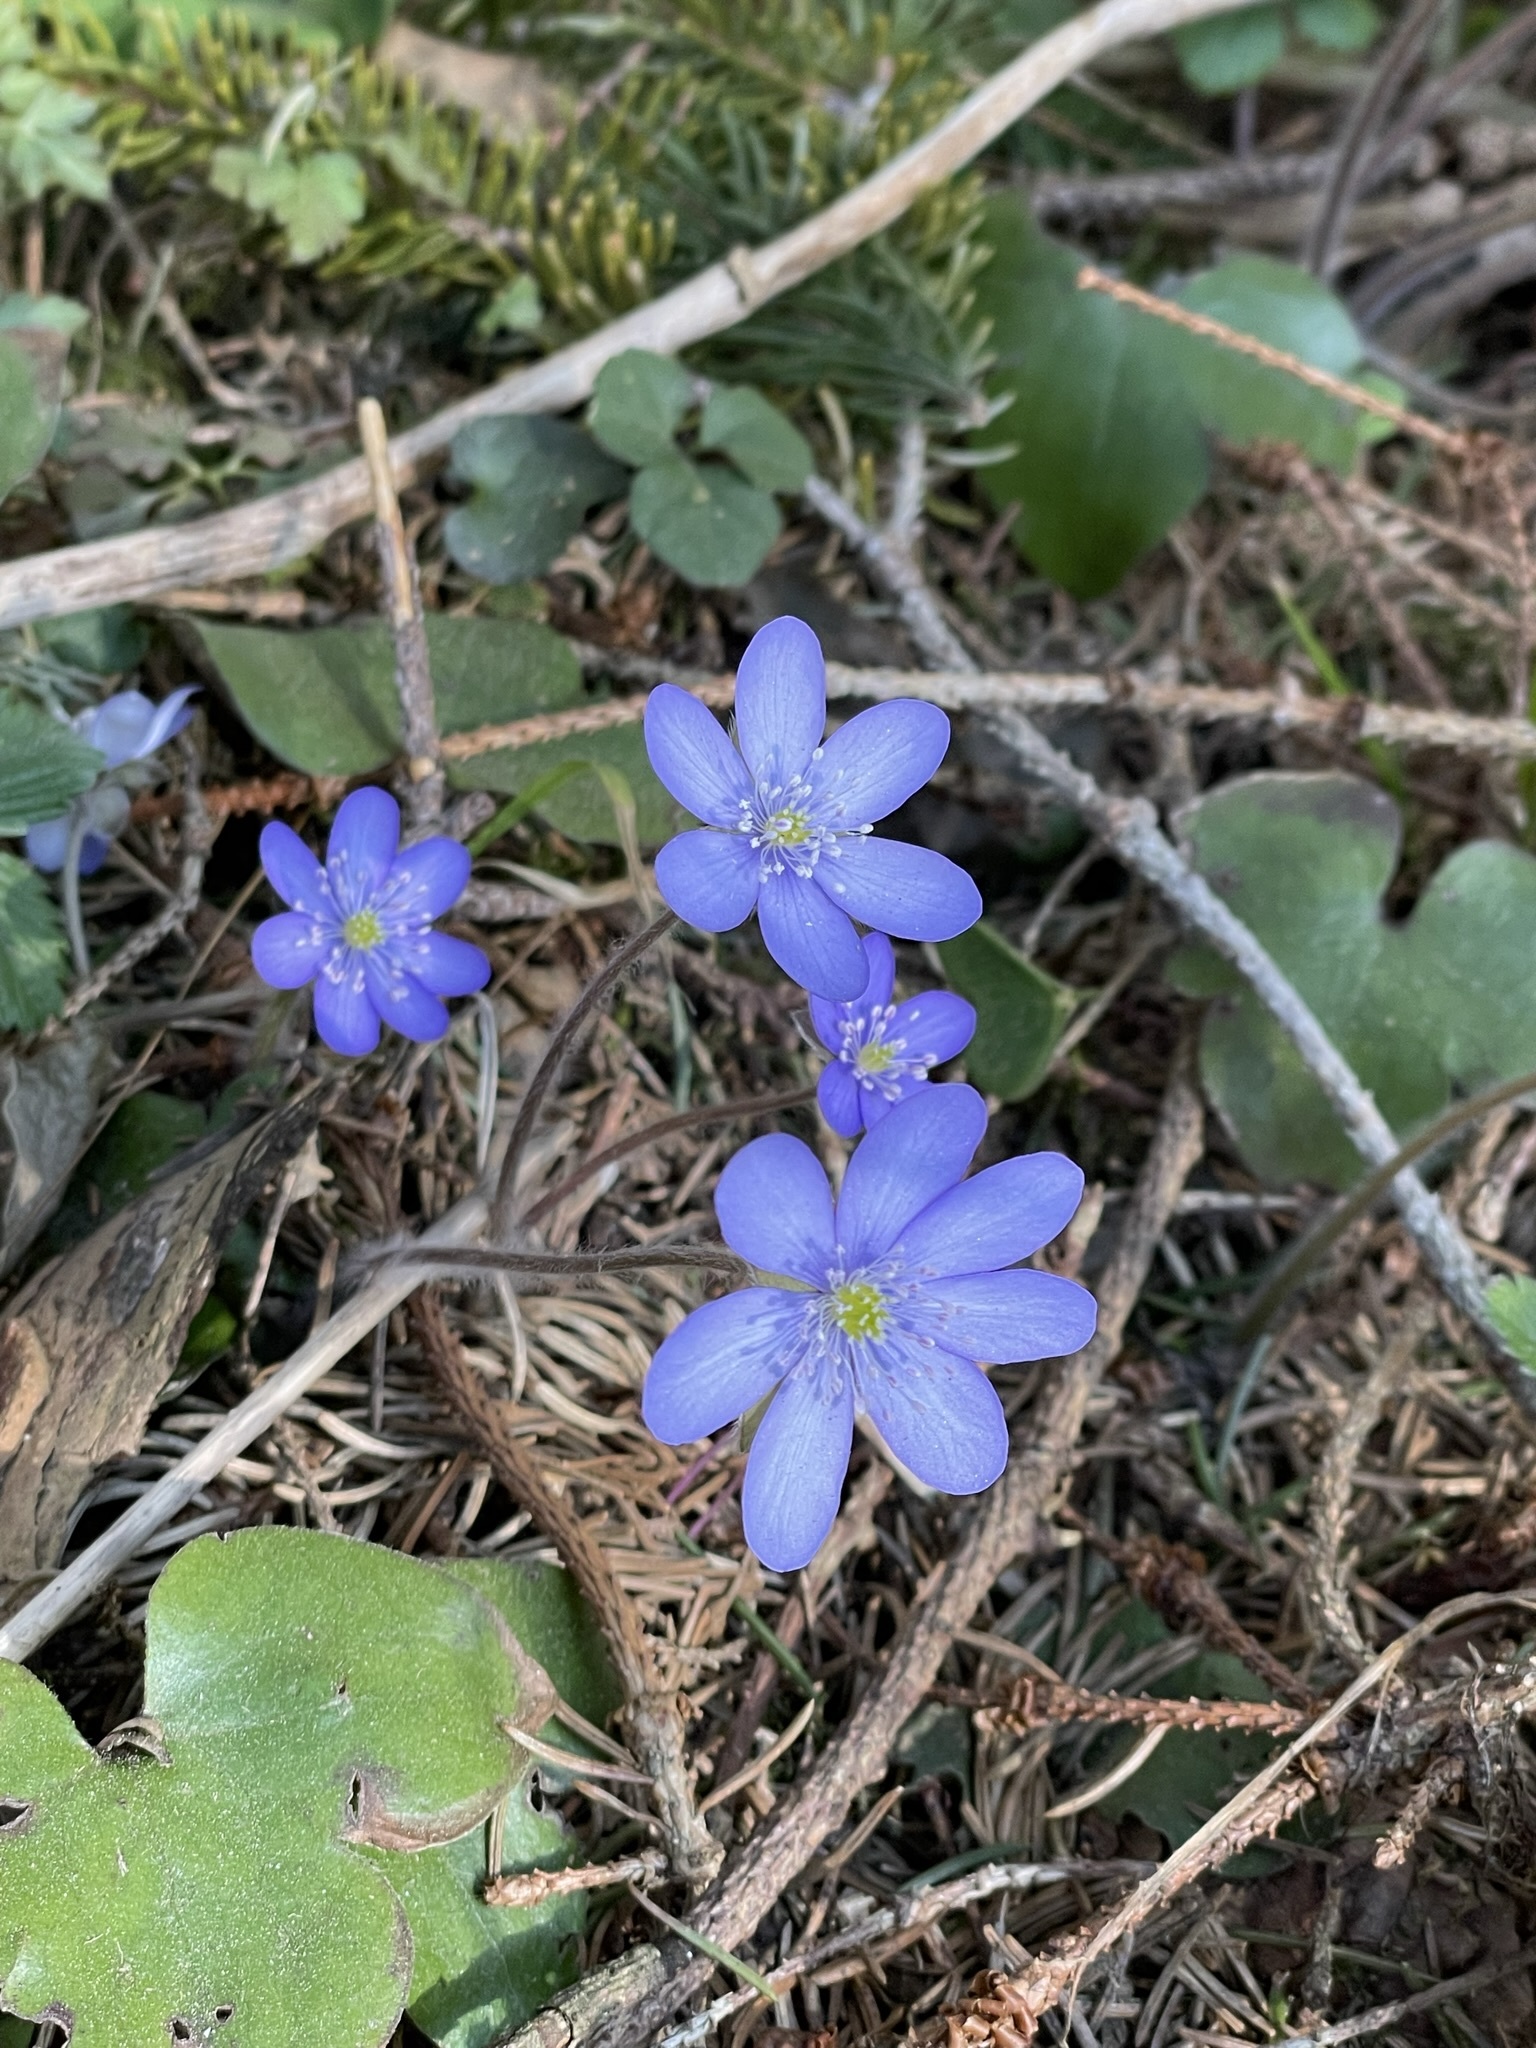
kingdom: Plantae
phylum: Tracheophyta
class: Magnoliopsida
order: Ranunculales
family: Ranunculaceae
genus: Hepatica
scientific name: Hepatica nobilis
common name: Liverleaf
